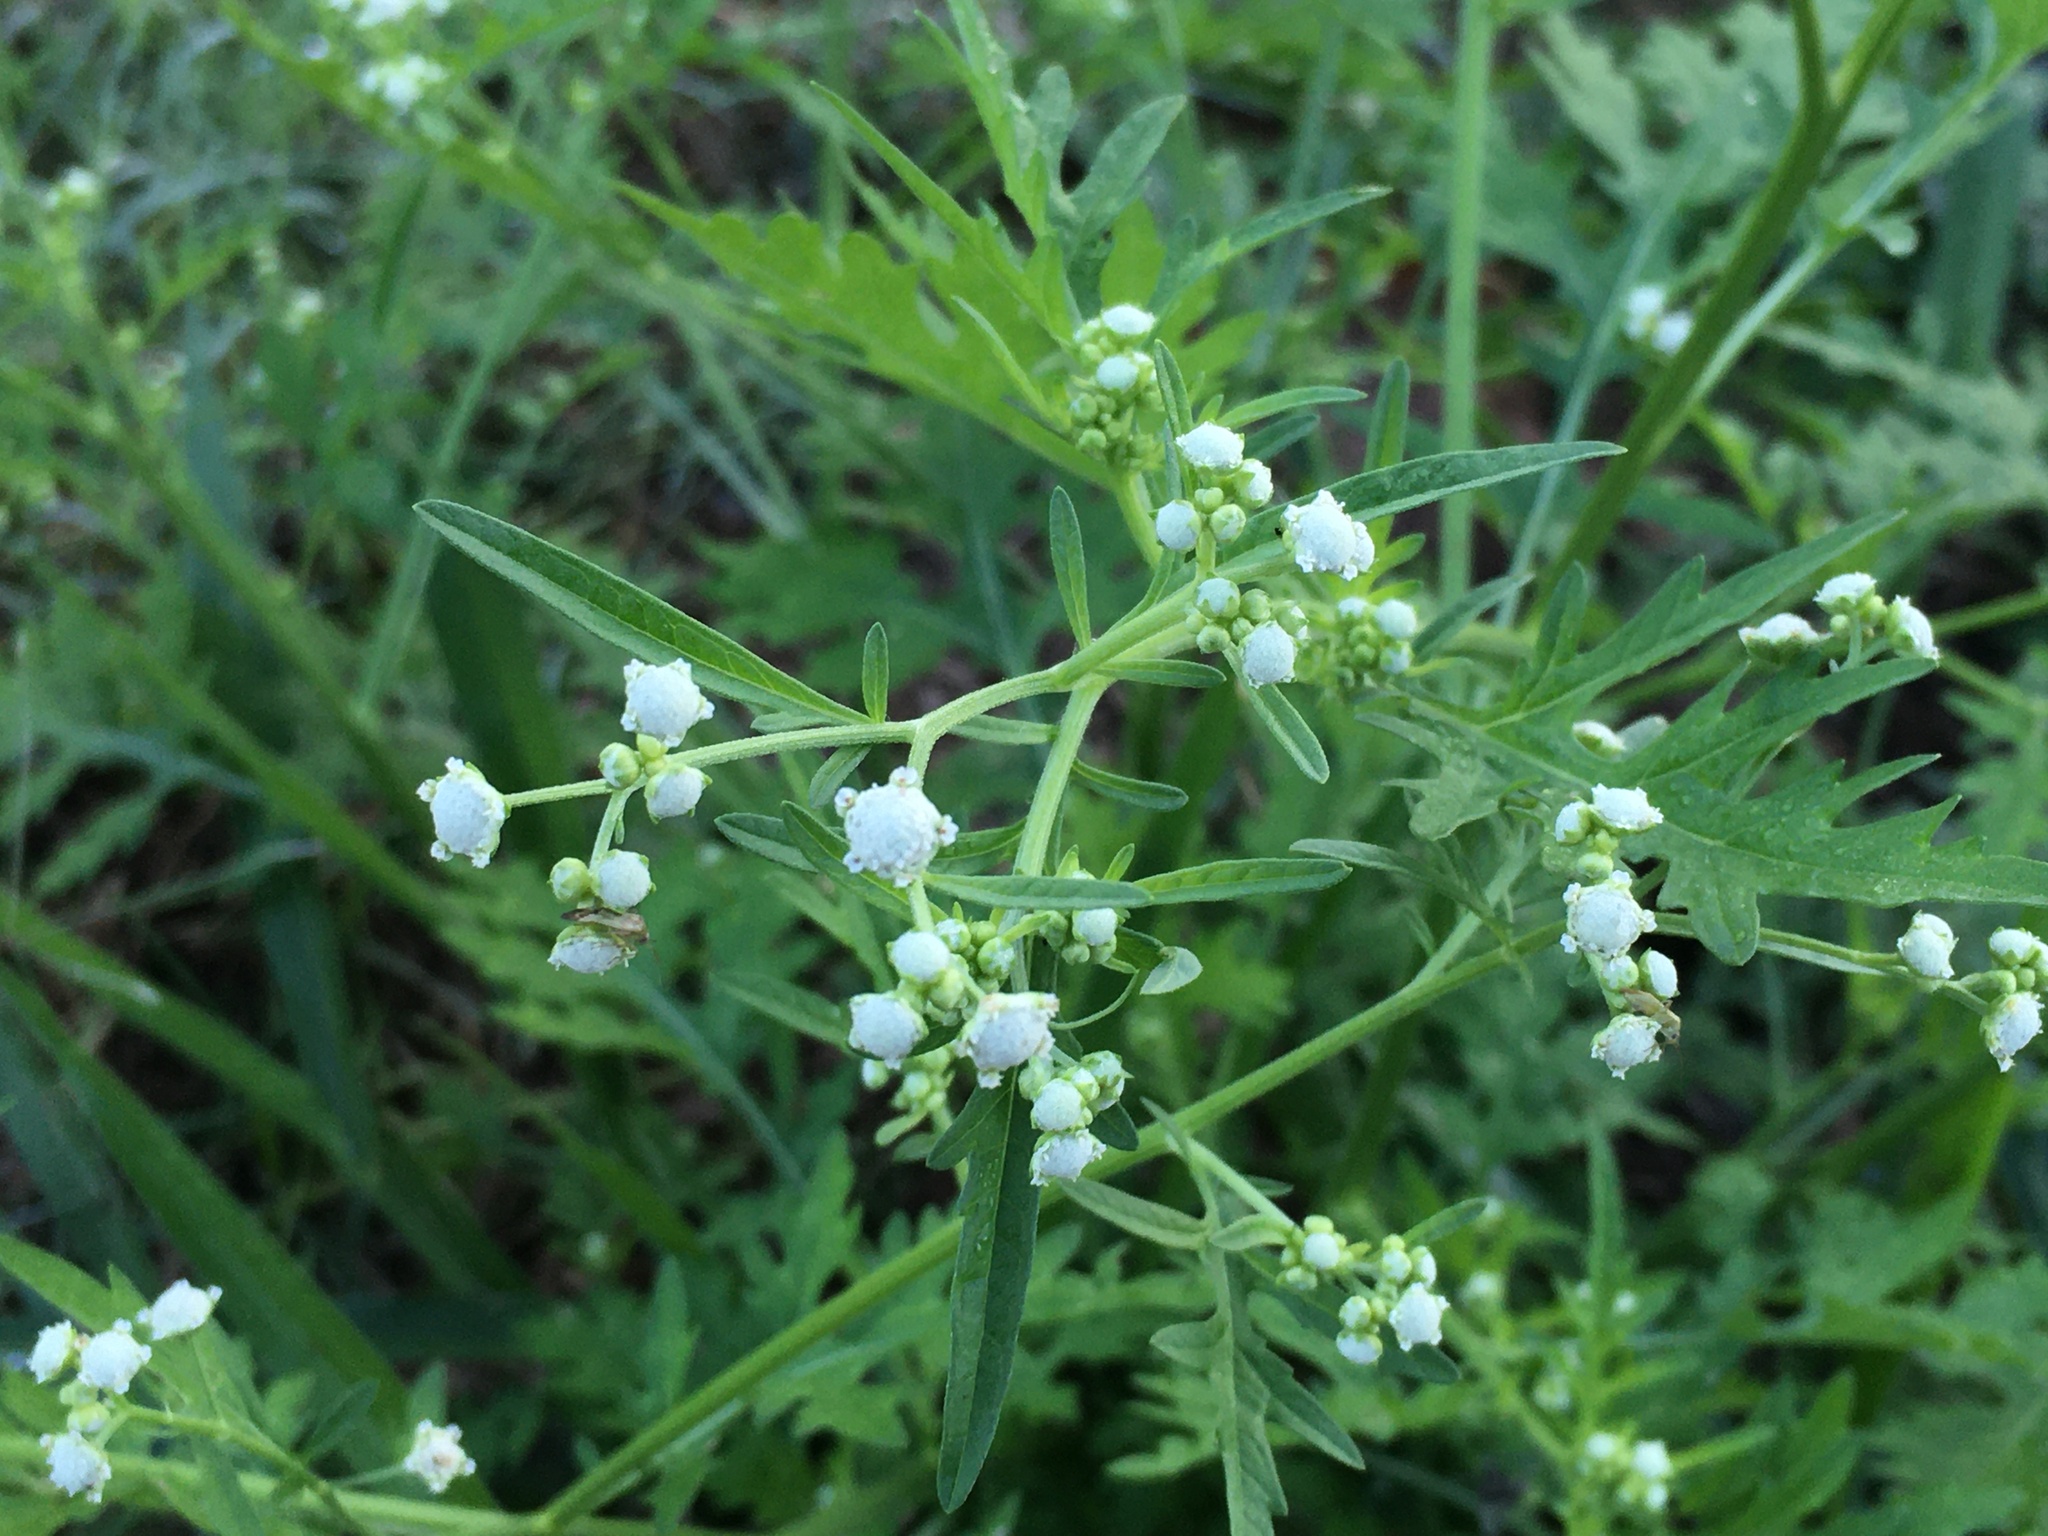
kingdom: Plantae
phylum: Tracheophyta
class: Magnoliopsida
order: Asterales
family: Asteraceae
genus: Parthenium
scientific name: Parthenium hysterophorus
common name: Santa maria feverfew
